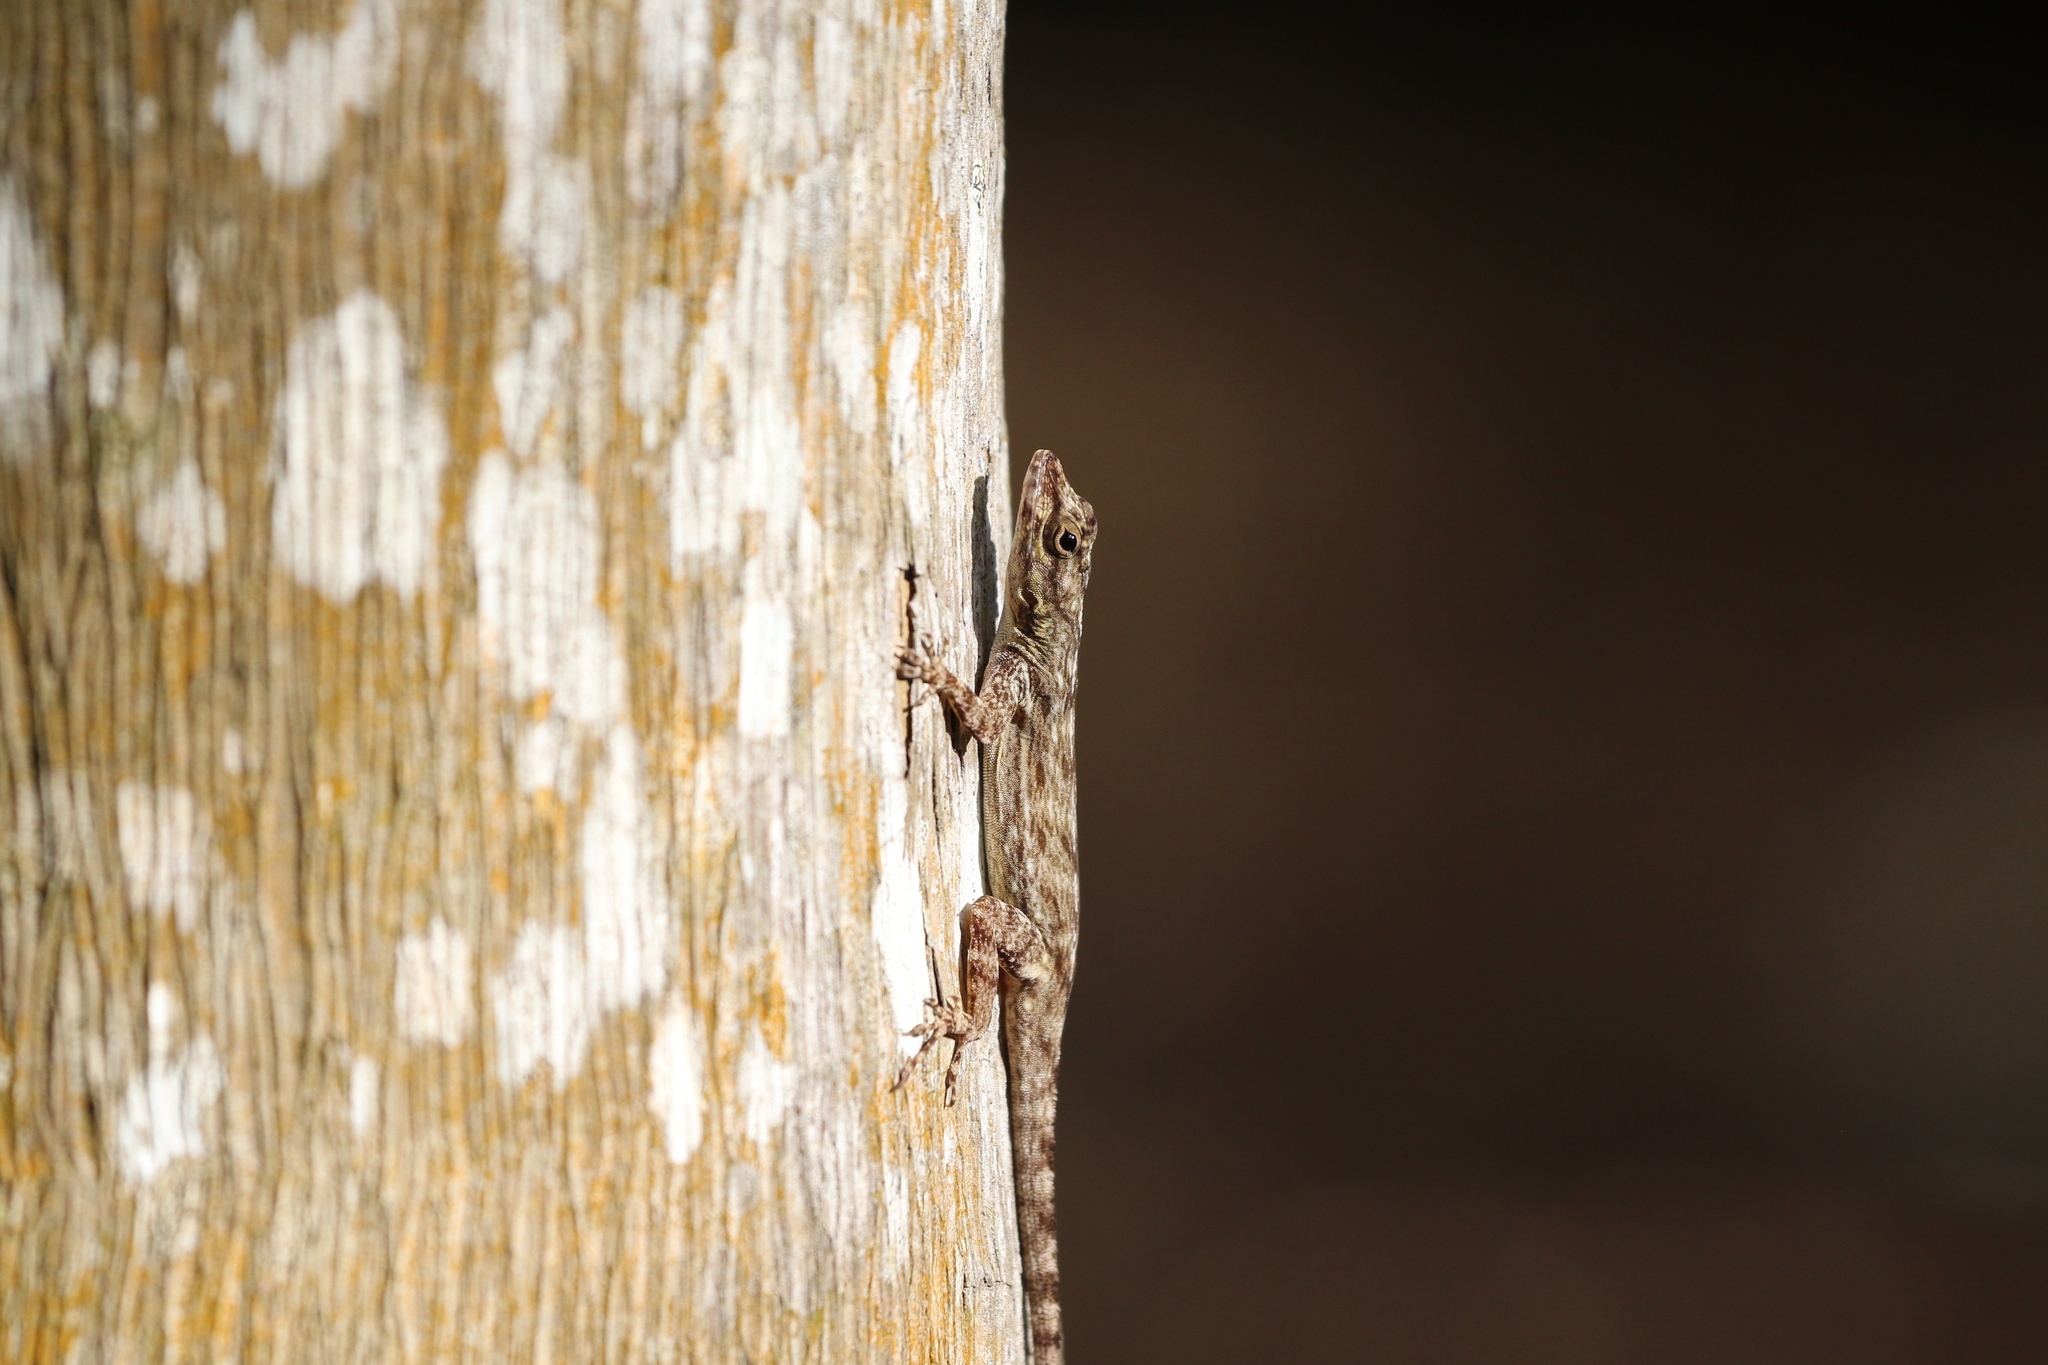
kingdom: Animalia
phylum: Chordata
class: Squamata
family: Dactyloidae
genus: Anolis
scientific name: Anolis distichus
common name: Bark anole
